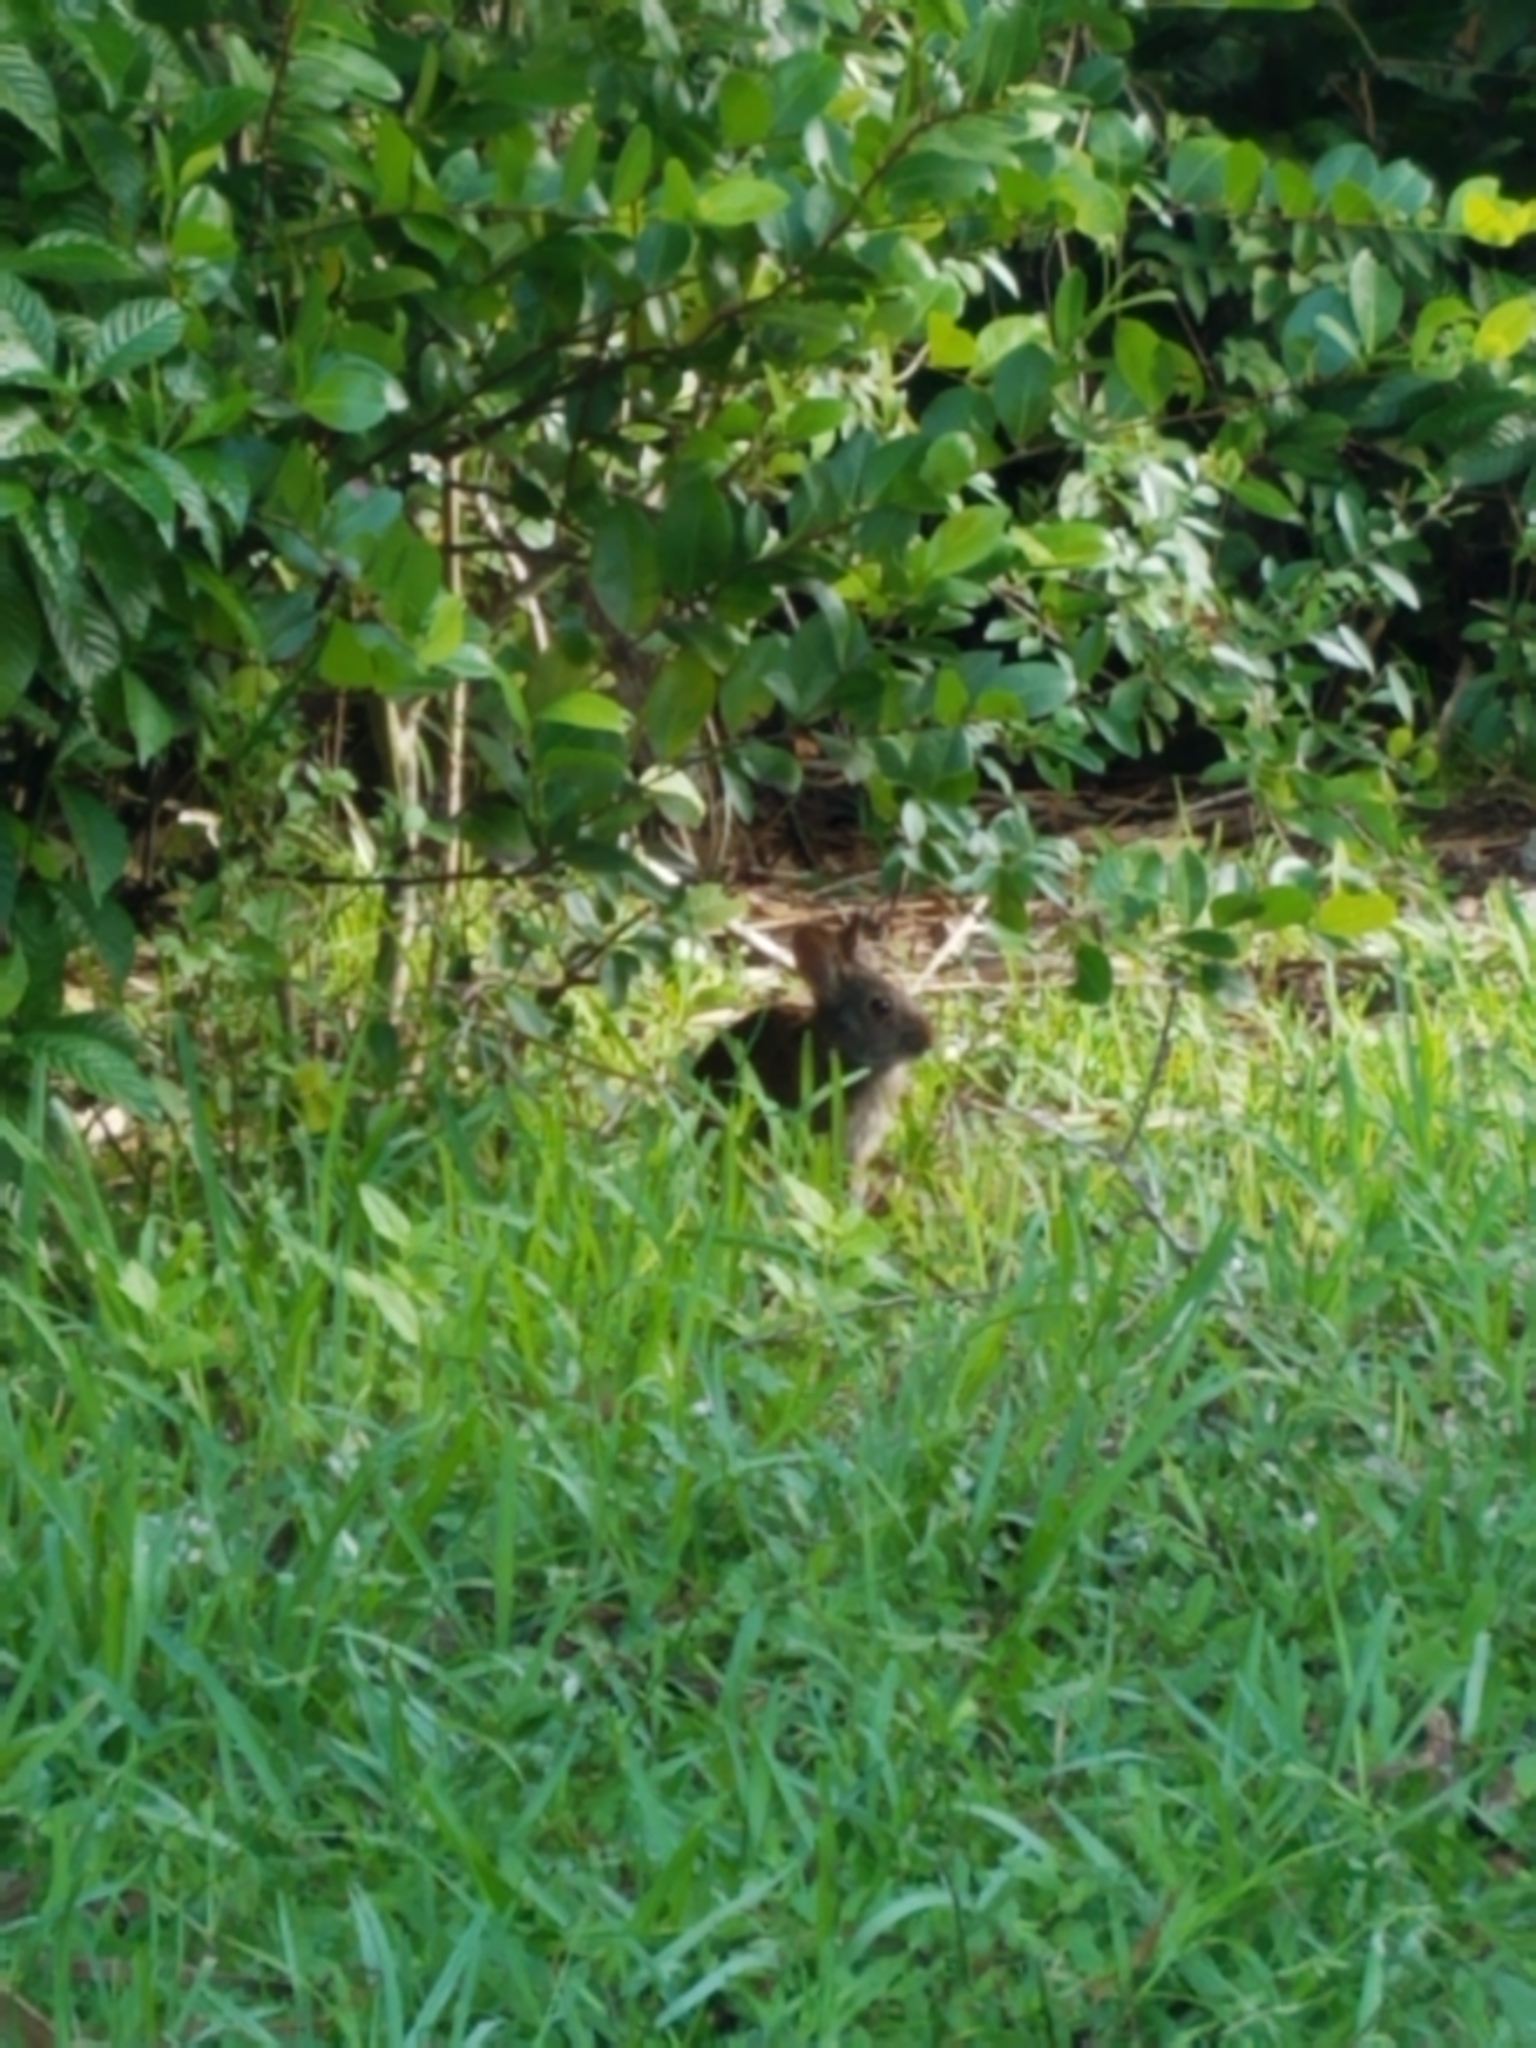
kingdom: Animalia
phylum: Chordata
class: Mammalia
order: Lagomorpha
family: Leporidae
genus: Sylvilagus
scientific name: Sylvilagus palustris
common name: Marsh rabbit
